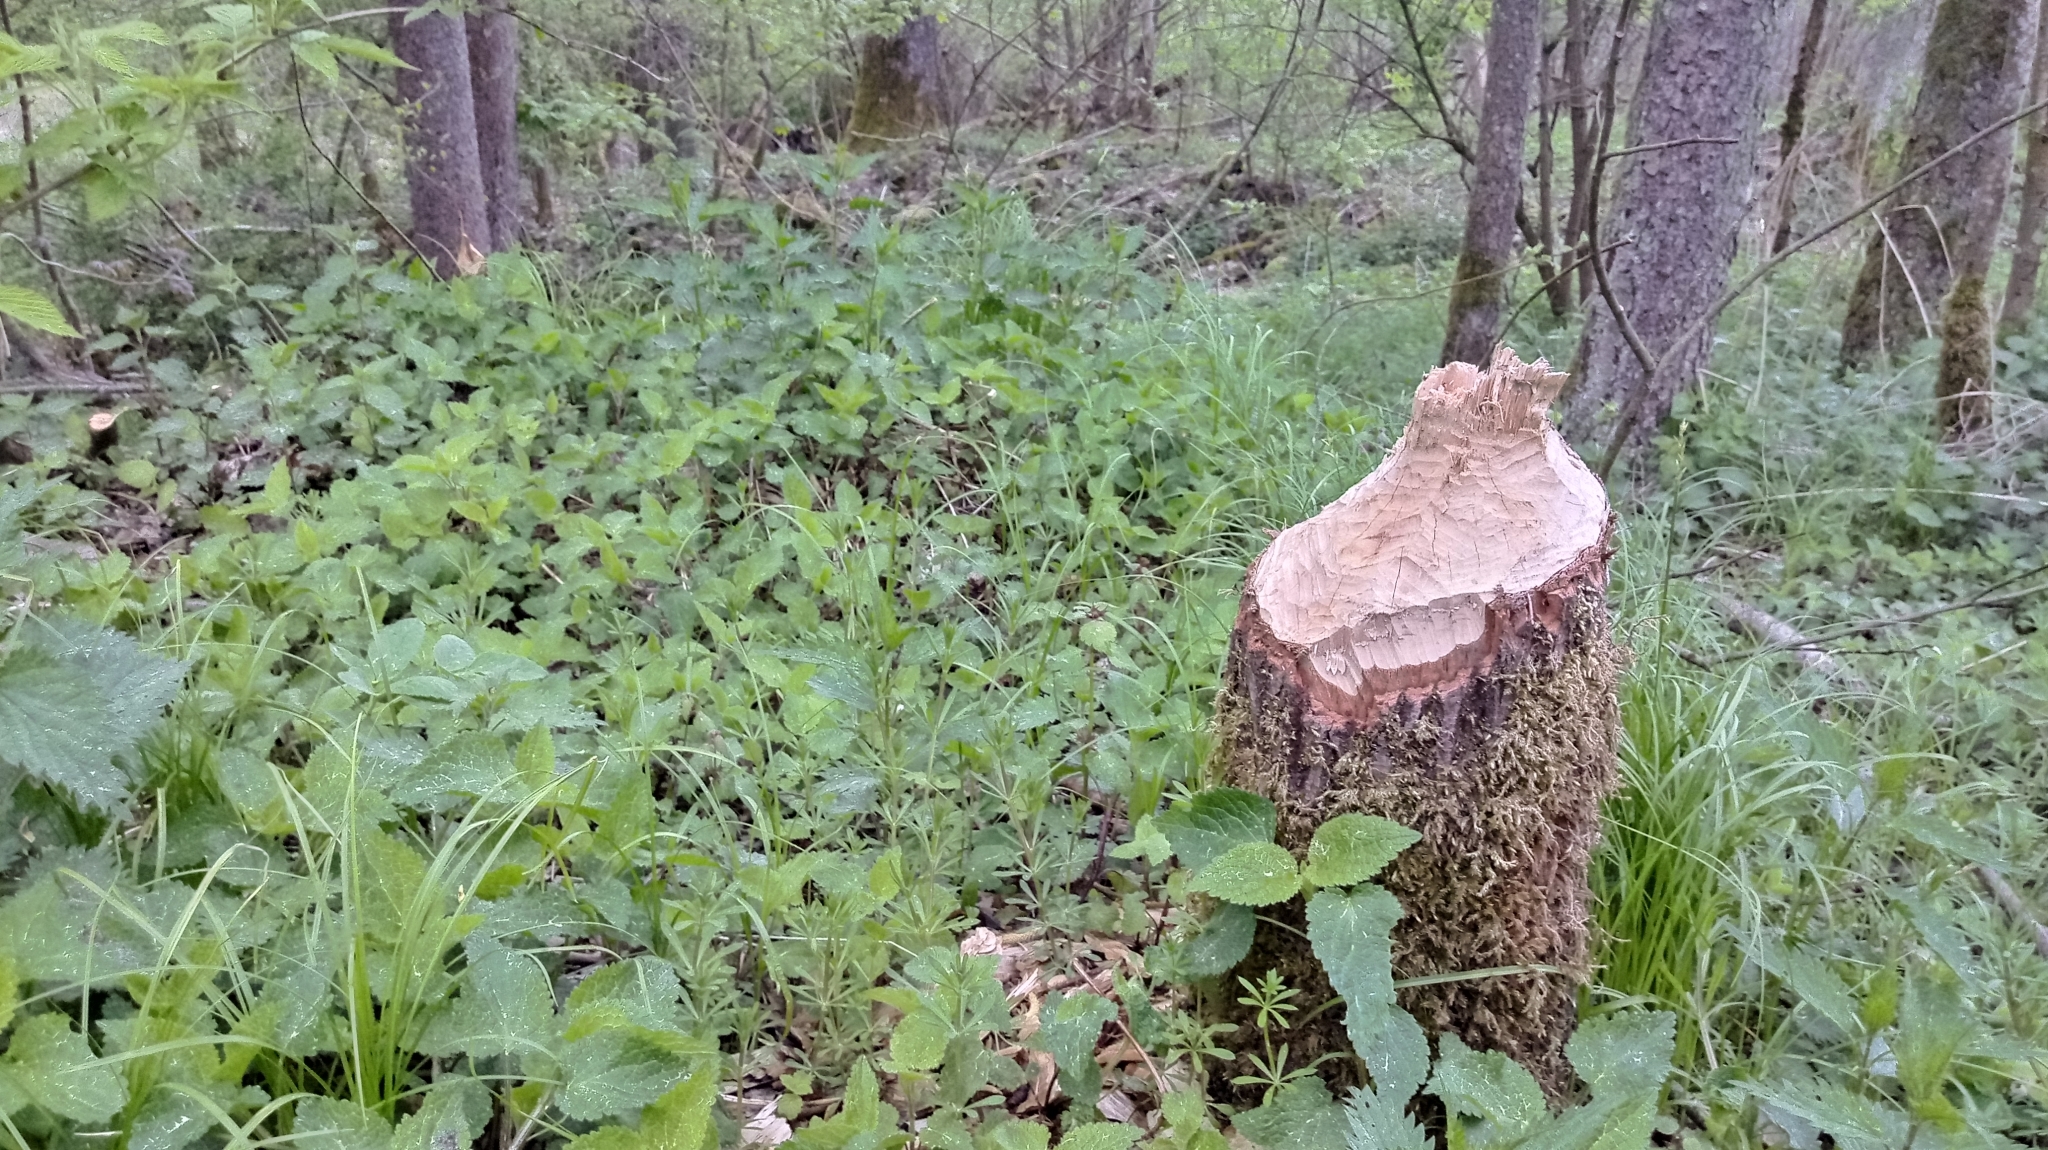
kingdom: Animalia
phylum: Chordata
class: Mammalia
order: Rodentia
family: Castoridae
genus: Castor
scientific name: Castor fiber
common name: Eurasian beaver
